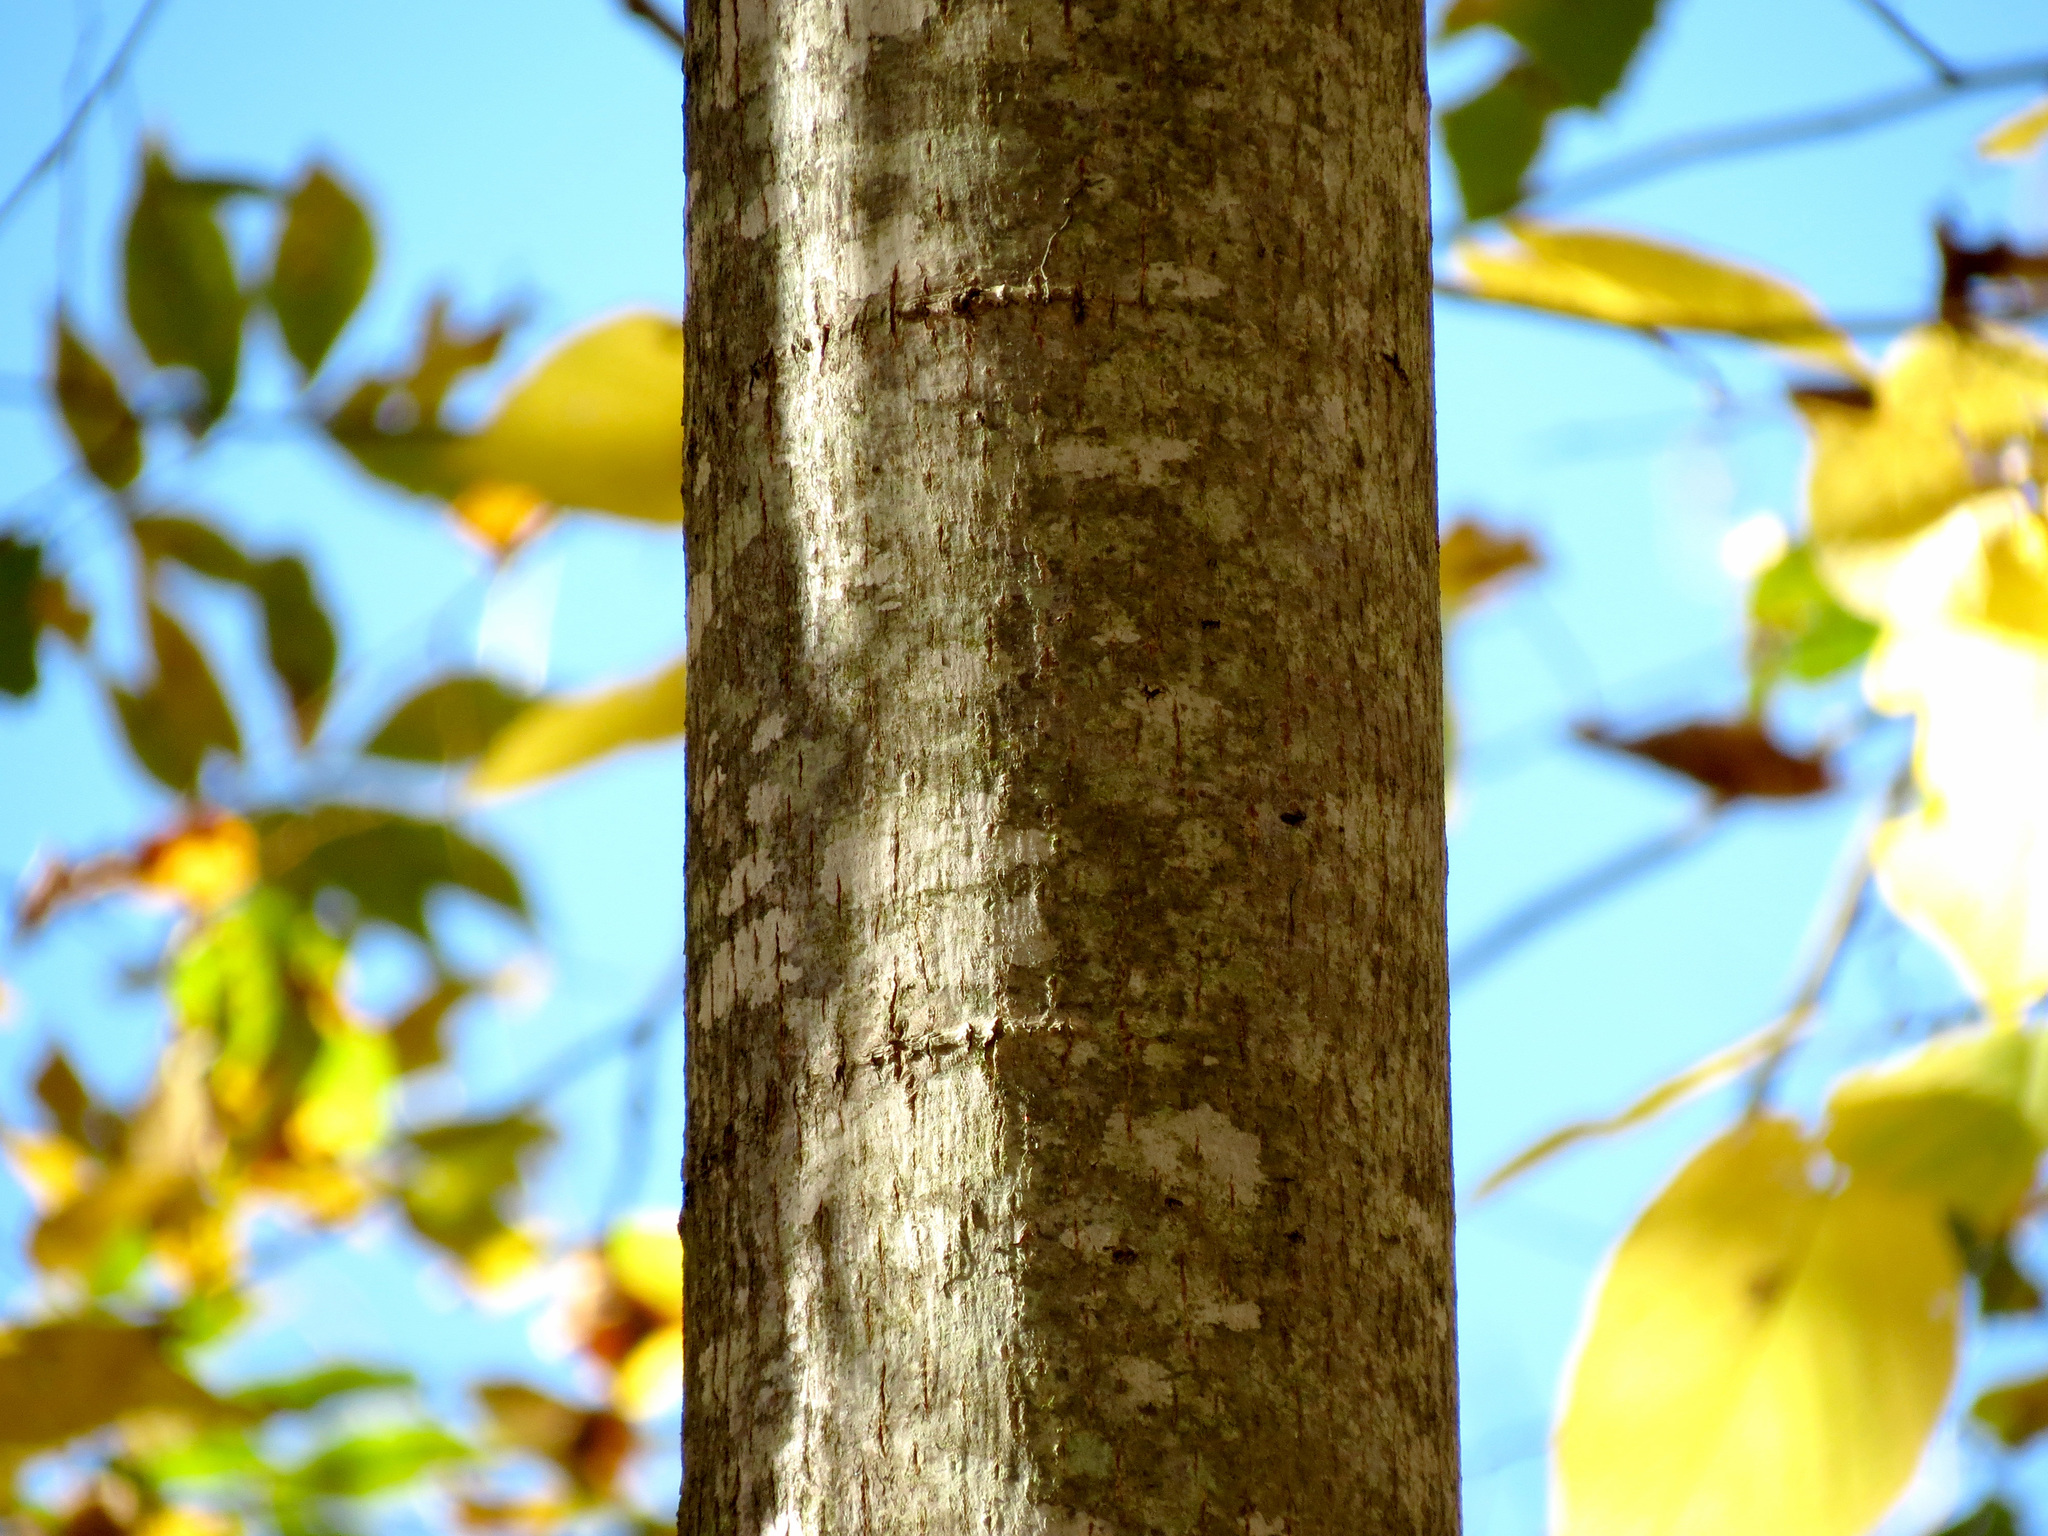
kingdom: Plantae
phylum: Tracheophyta
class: Magnoliopsida
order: Malvales
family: Malvaceae
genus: Tilia
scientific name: Tilia americana
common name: Basswood
